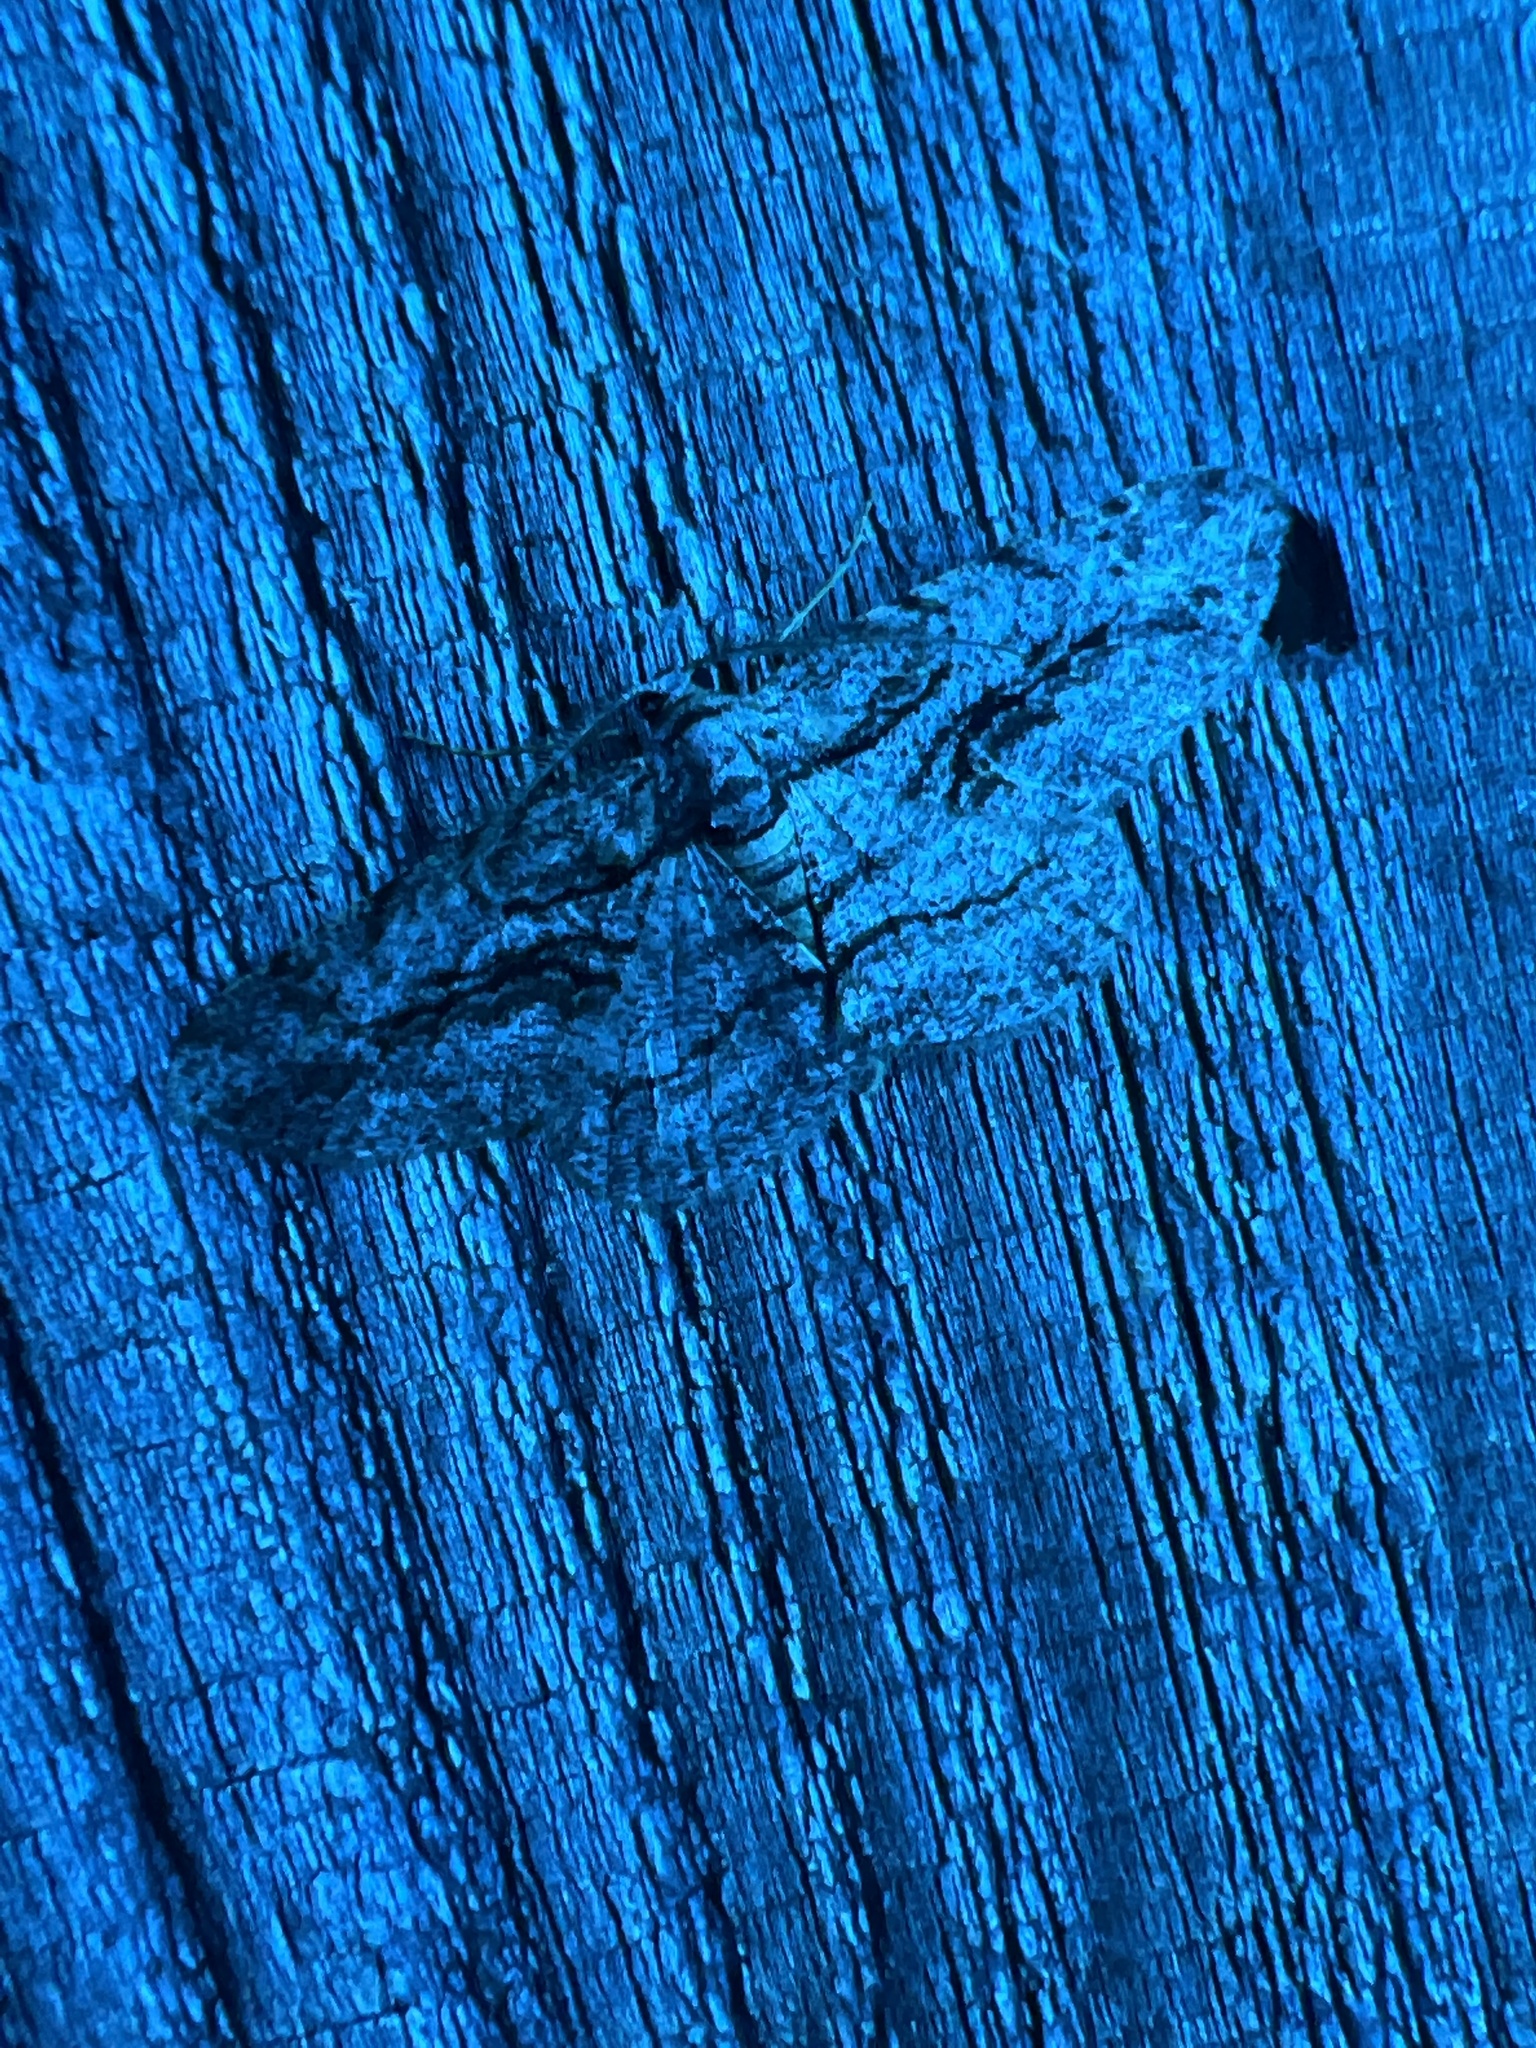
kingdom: Animalia
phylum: Arthropoda
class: Insecta
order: Lepidoptera
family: Geometridae
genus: Anavitrinella
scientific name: Anavitrinella pampinaria
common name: Common gray
